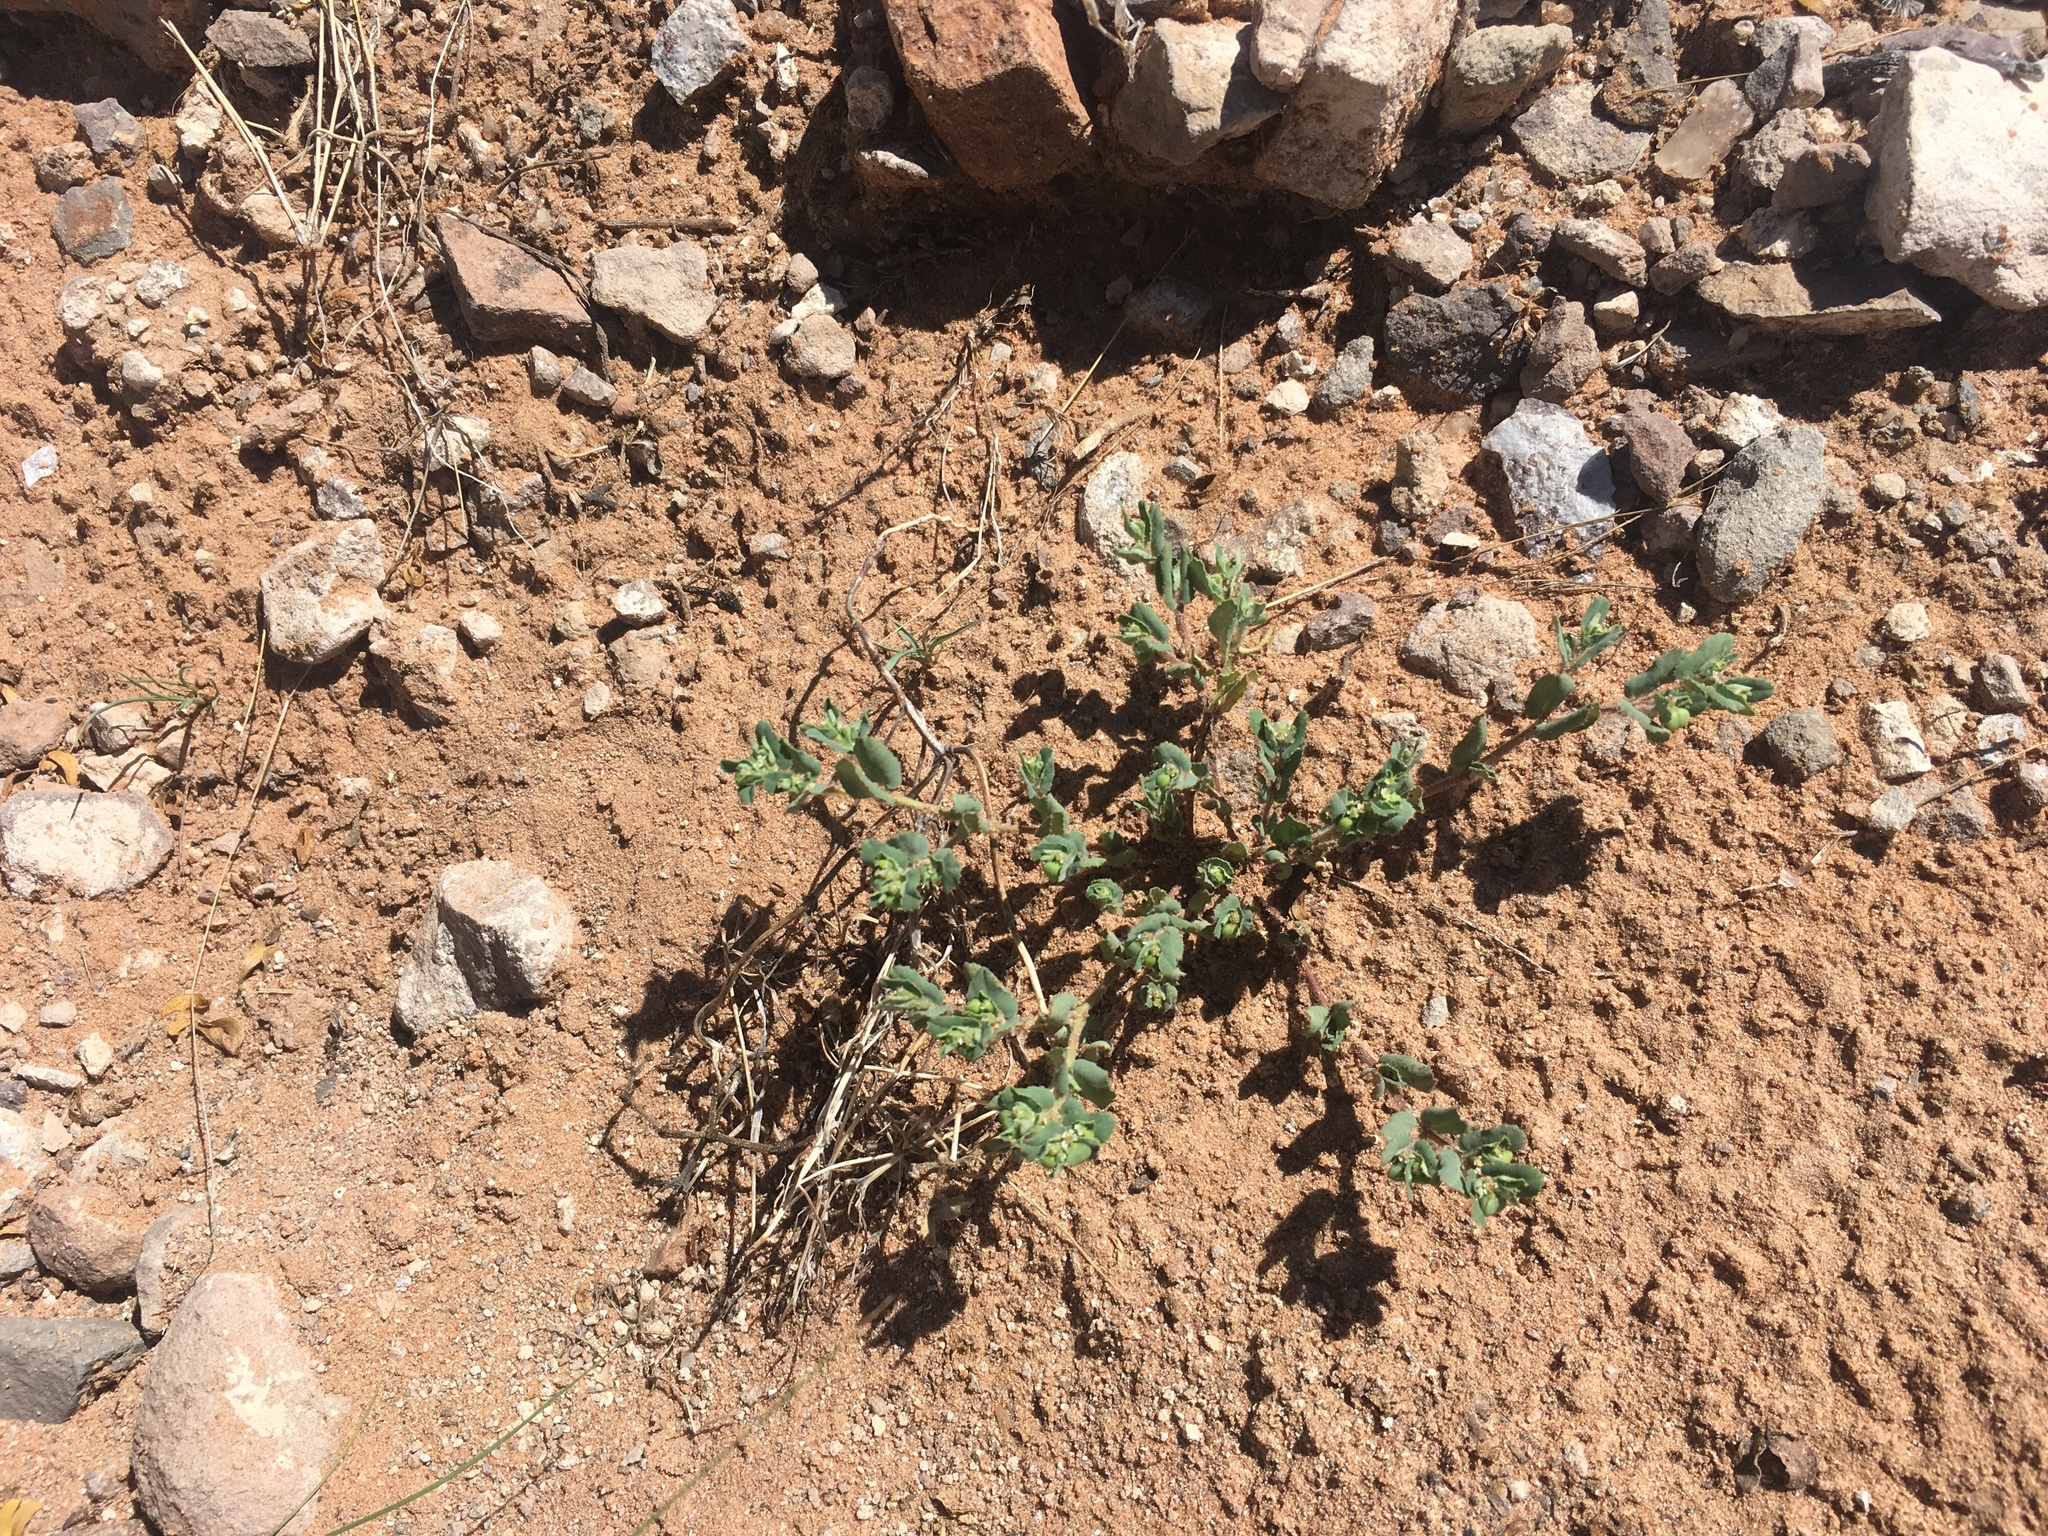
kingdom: Plantae
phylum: Tracheophyta
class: Magnoliopsida
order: Malpighiales
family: Euphorbiaceae
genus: Euphorbia
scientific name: Euphorbia serrula
